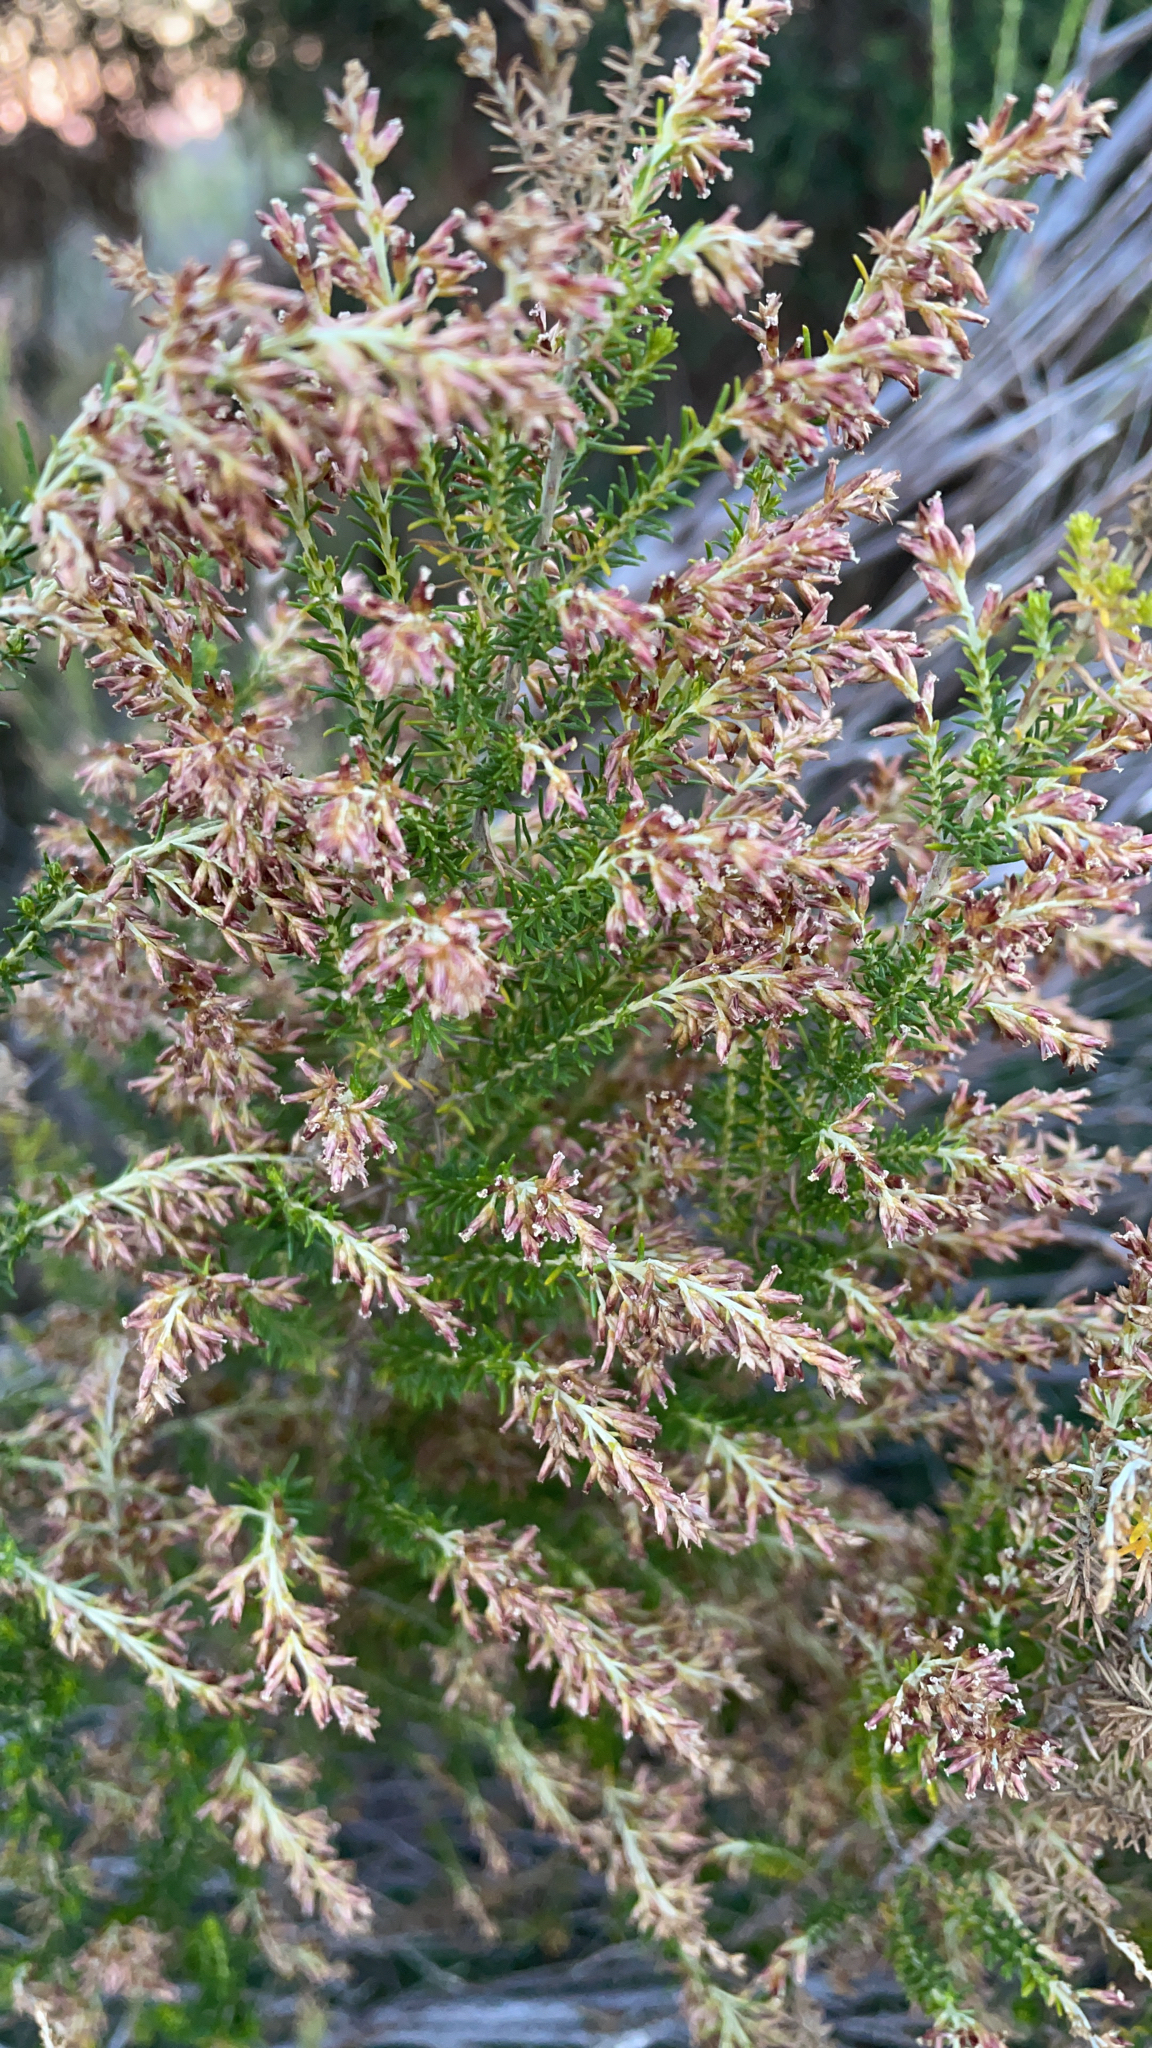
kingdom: Plantae
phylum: Tracheophyta
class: Magnoliopsida
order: Asterales
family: Asteraceae
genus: Cassinia
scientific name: Cassinia sifton
